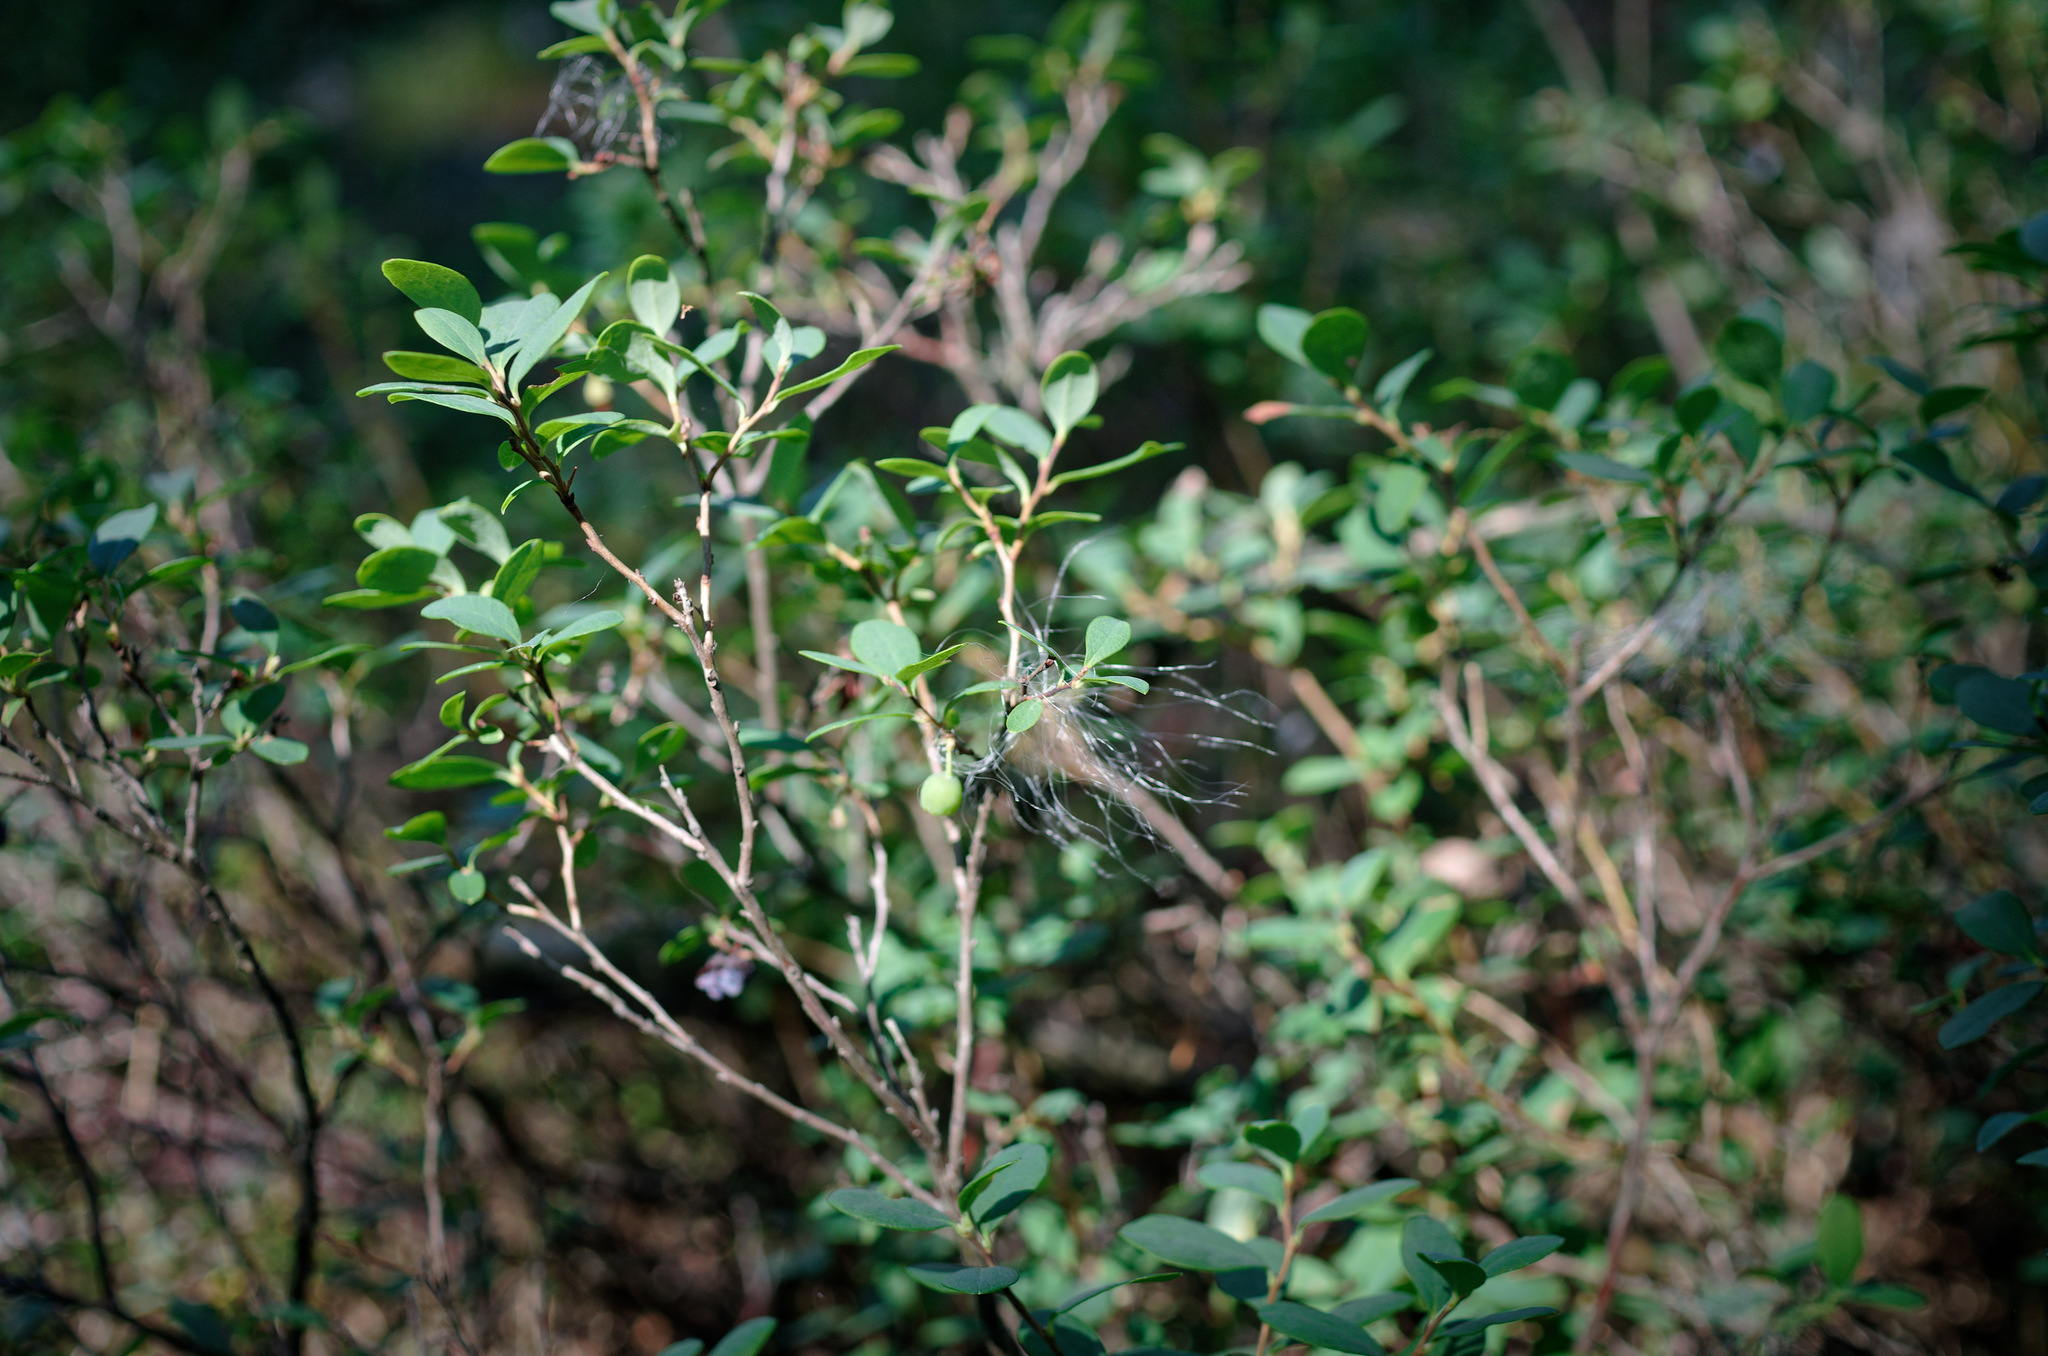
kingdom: Plantae
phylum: Tracheophyta
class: Magnoliopsida
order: Ericales
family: Ericaceae
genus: Vaccinium
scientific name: Vaccinium uliginosum
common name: Bog bilberry
